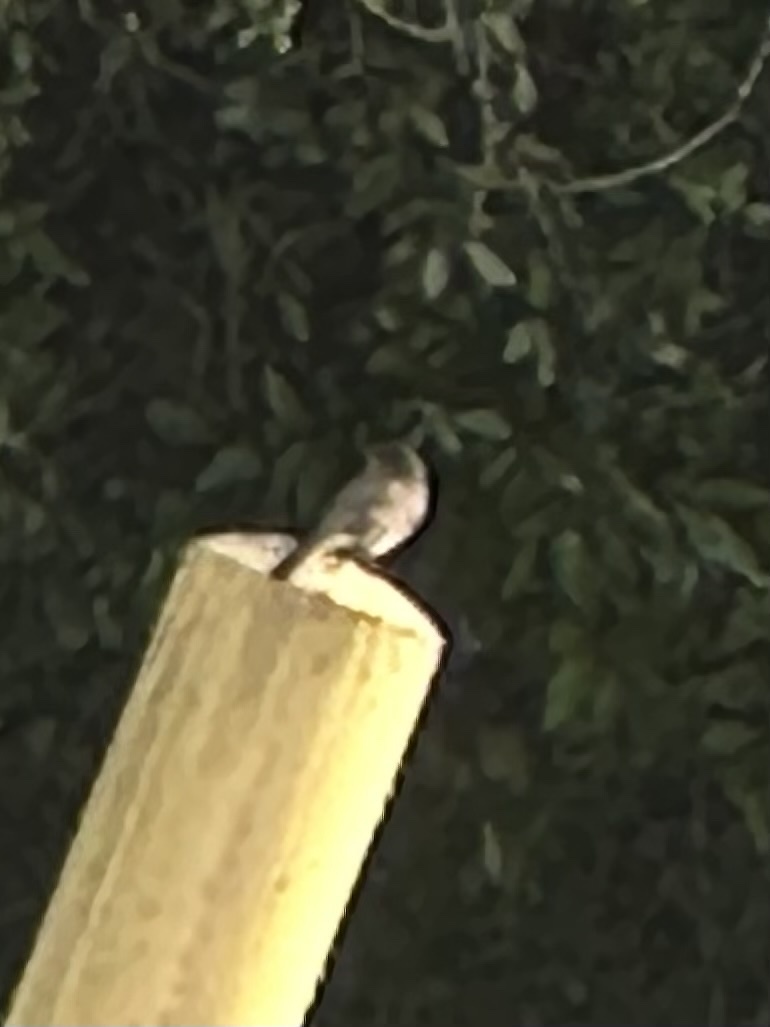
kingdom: Animalia
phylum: Chordata
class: Aves
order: Passeriformes
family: Tyrannidae
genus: Sayornis
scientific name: Sayornis phoebe
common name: Eastern phoebe
